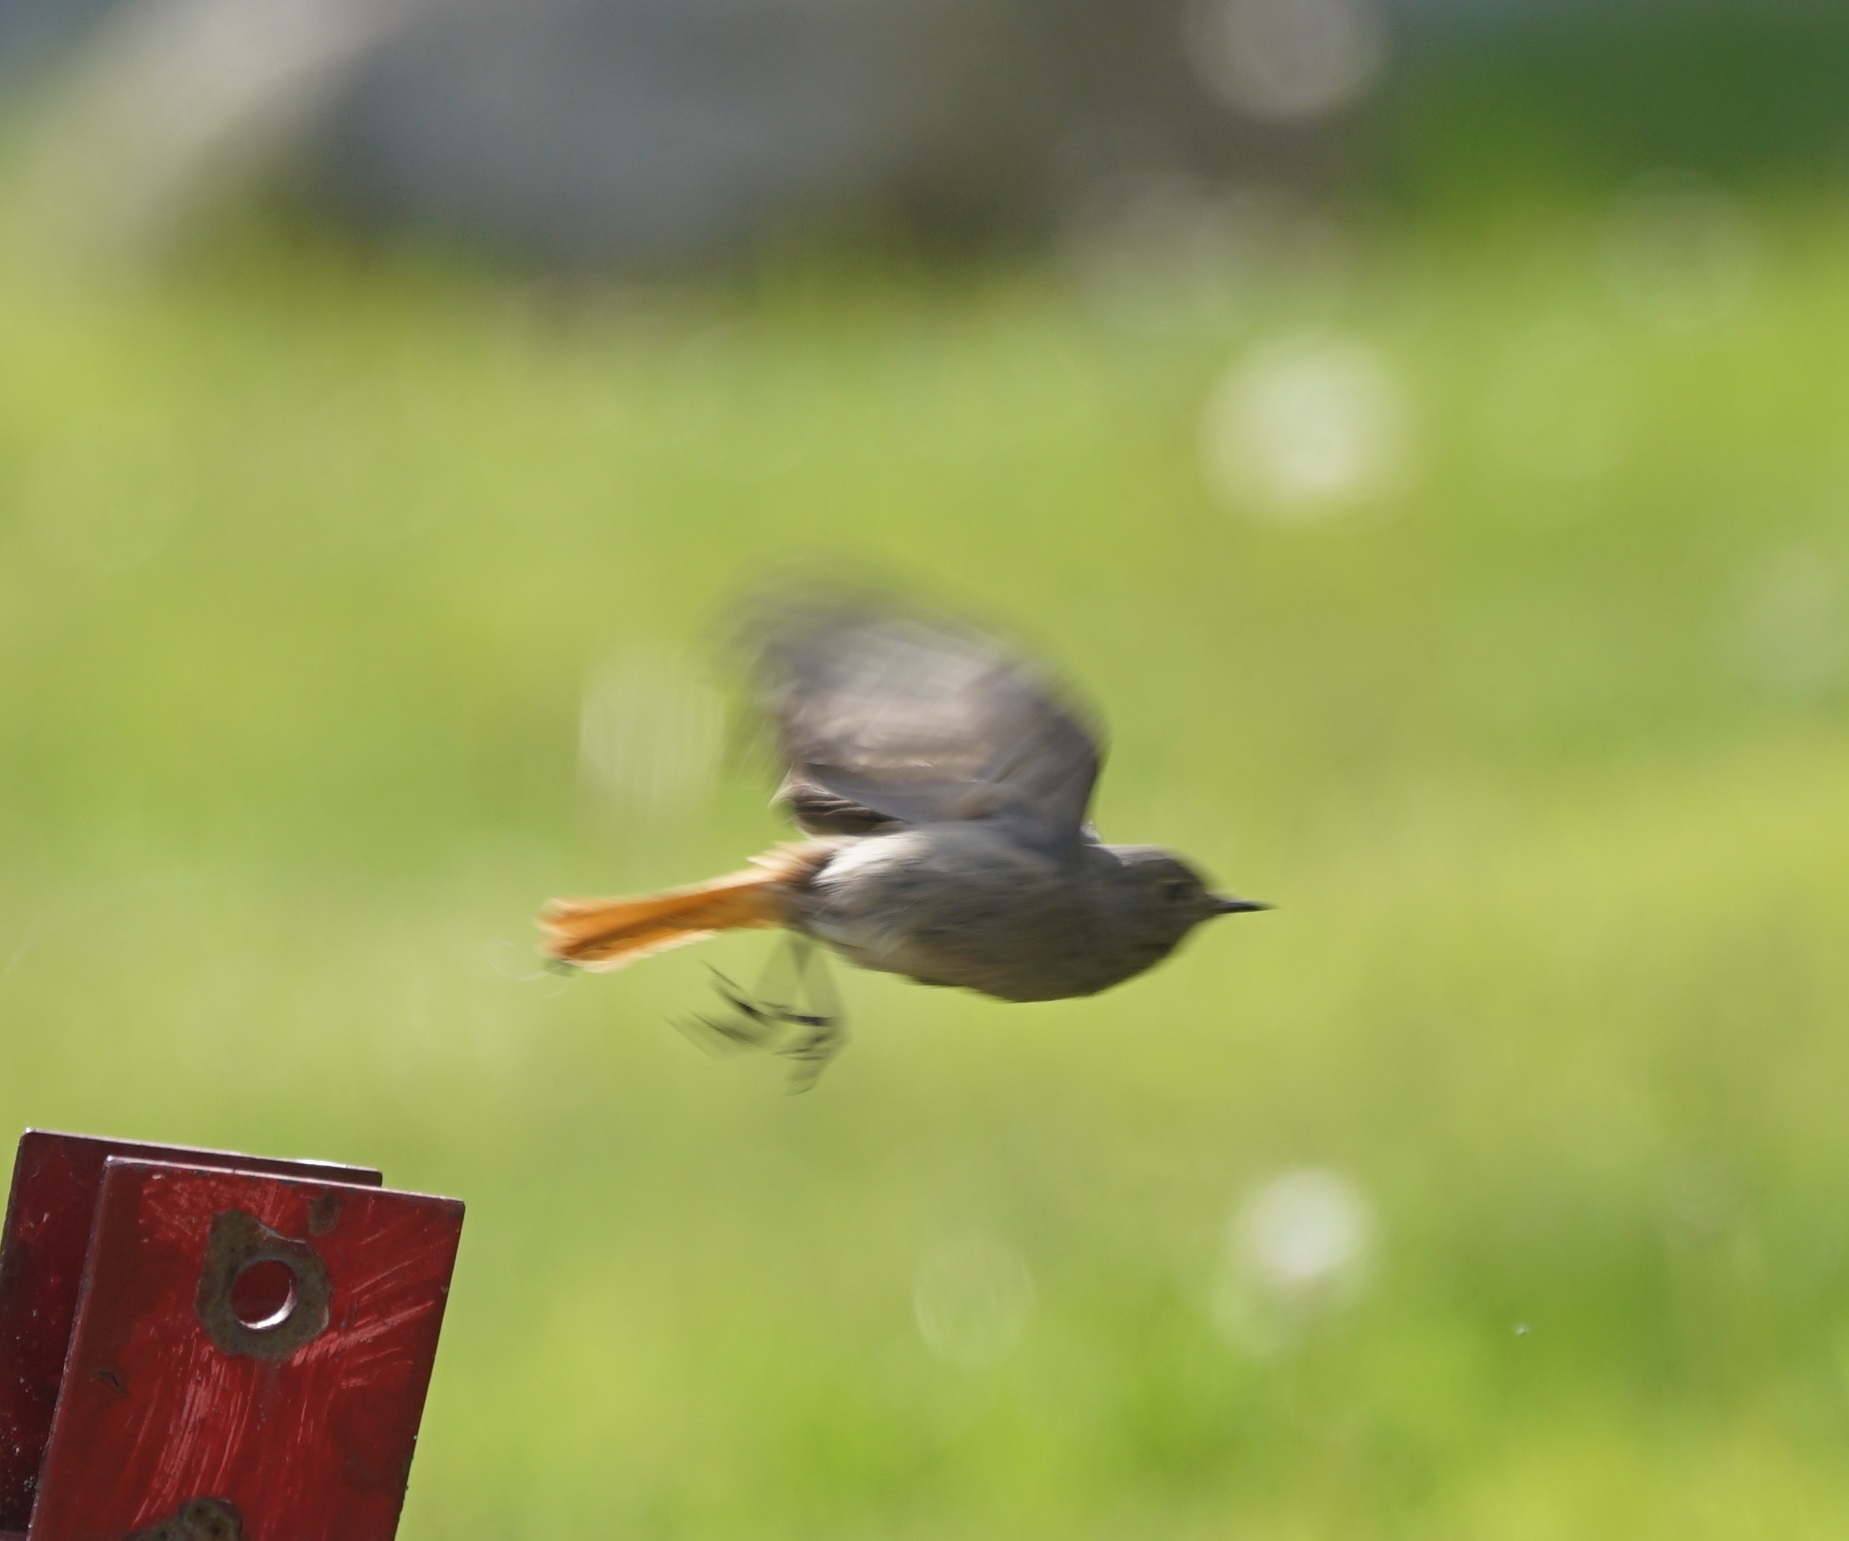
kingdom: Animalia
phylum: Chordata
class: Aves
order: Passeriformes
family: Muscicapidae
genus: Phoenicurus
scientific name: Phoenicurus ochruros
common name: Black redstart
